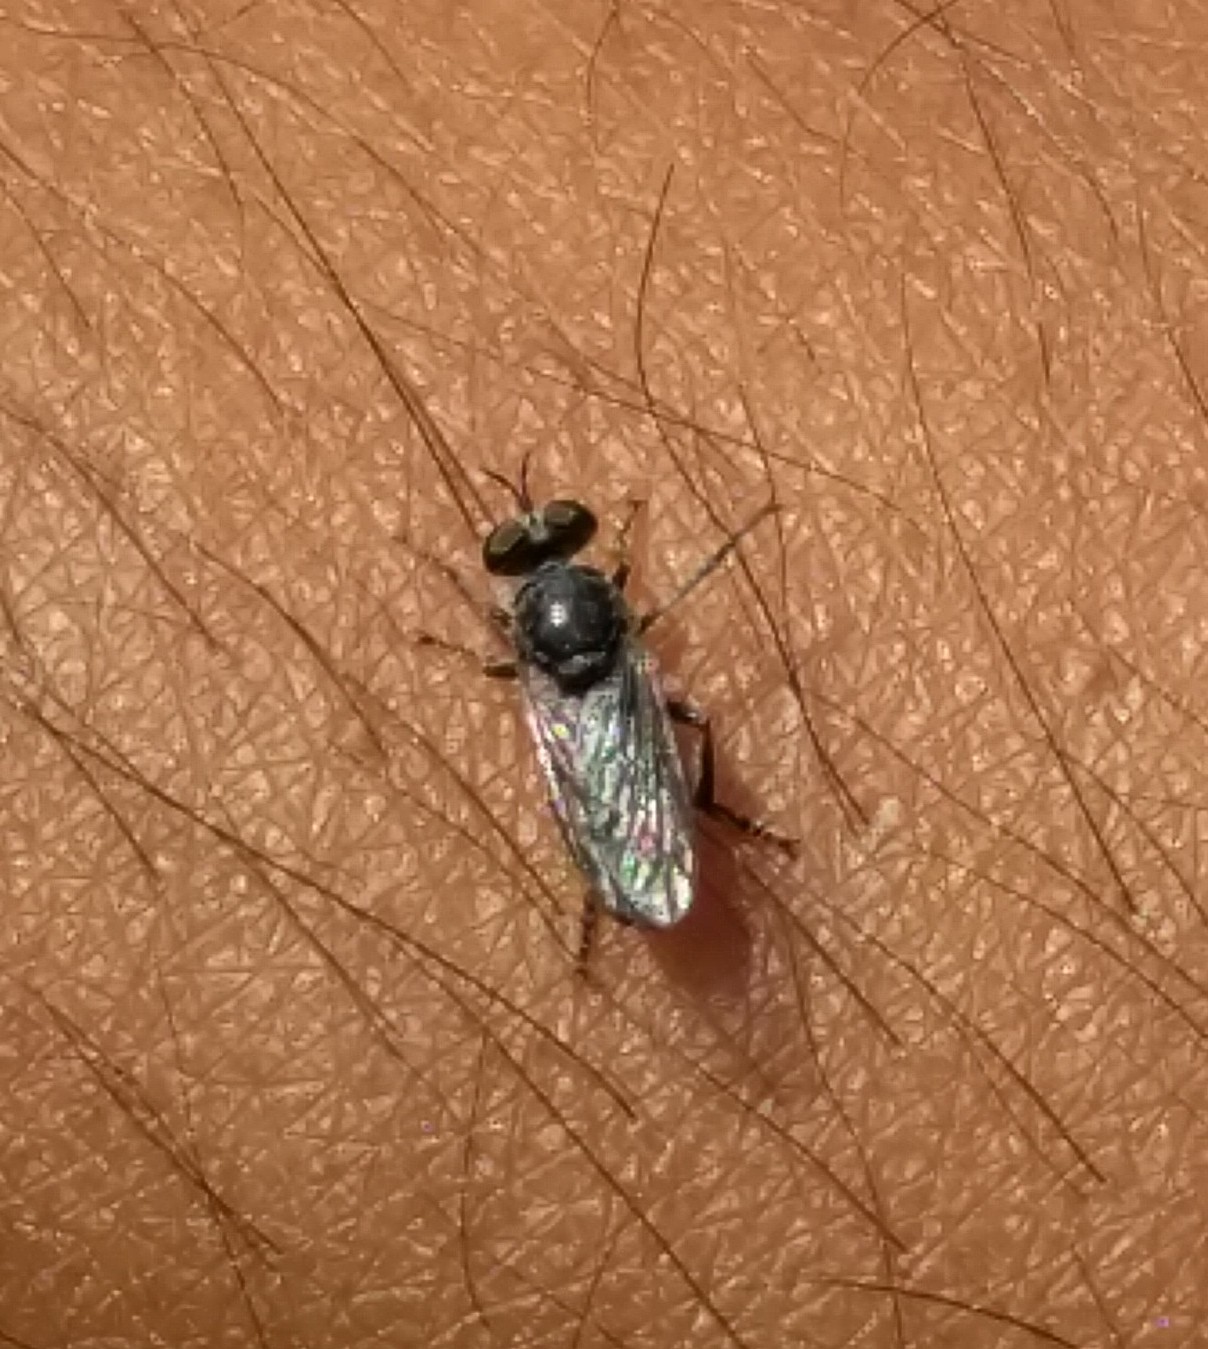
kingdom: Animalia
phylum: Arthropoda
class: Insecta
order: Diptera
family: Asilidae
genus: Atomosia
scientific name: Atomosia puella
